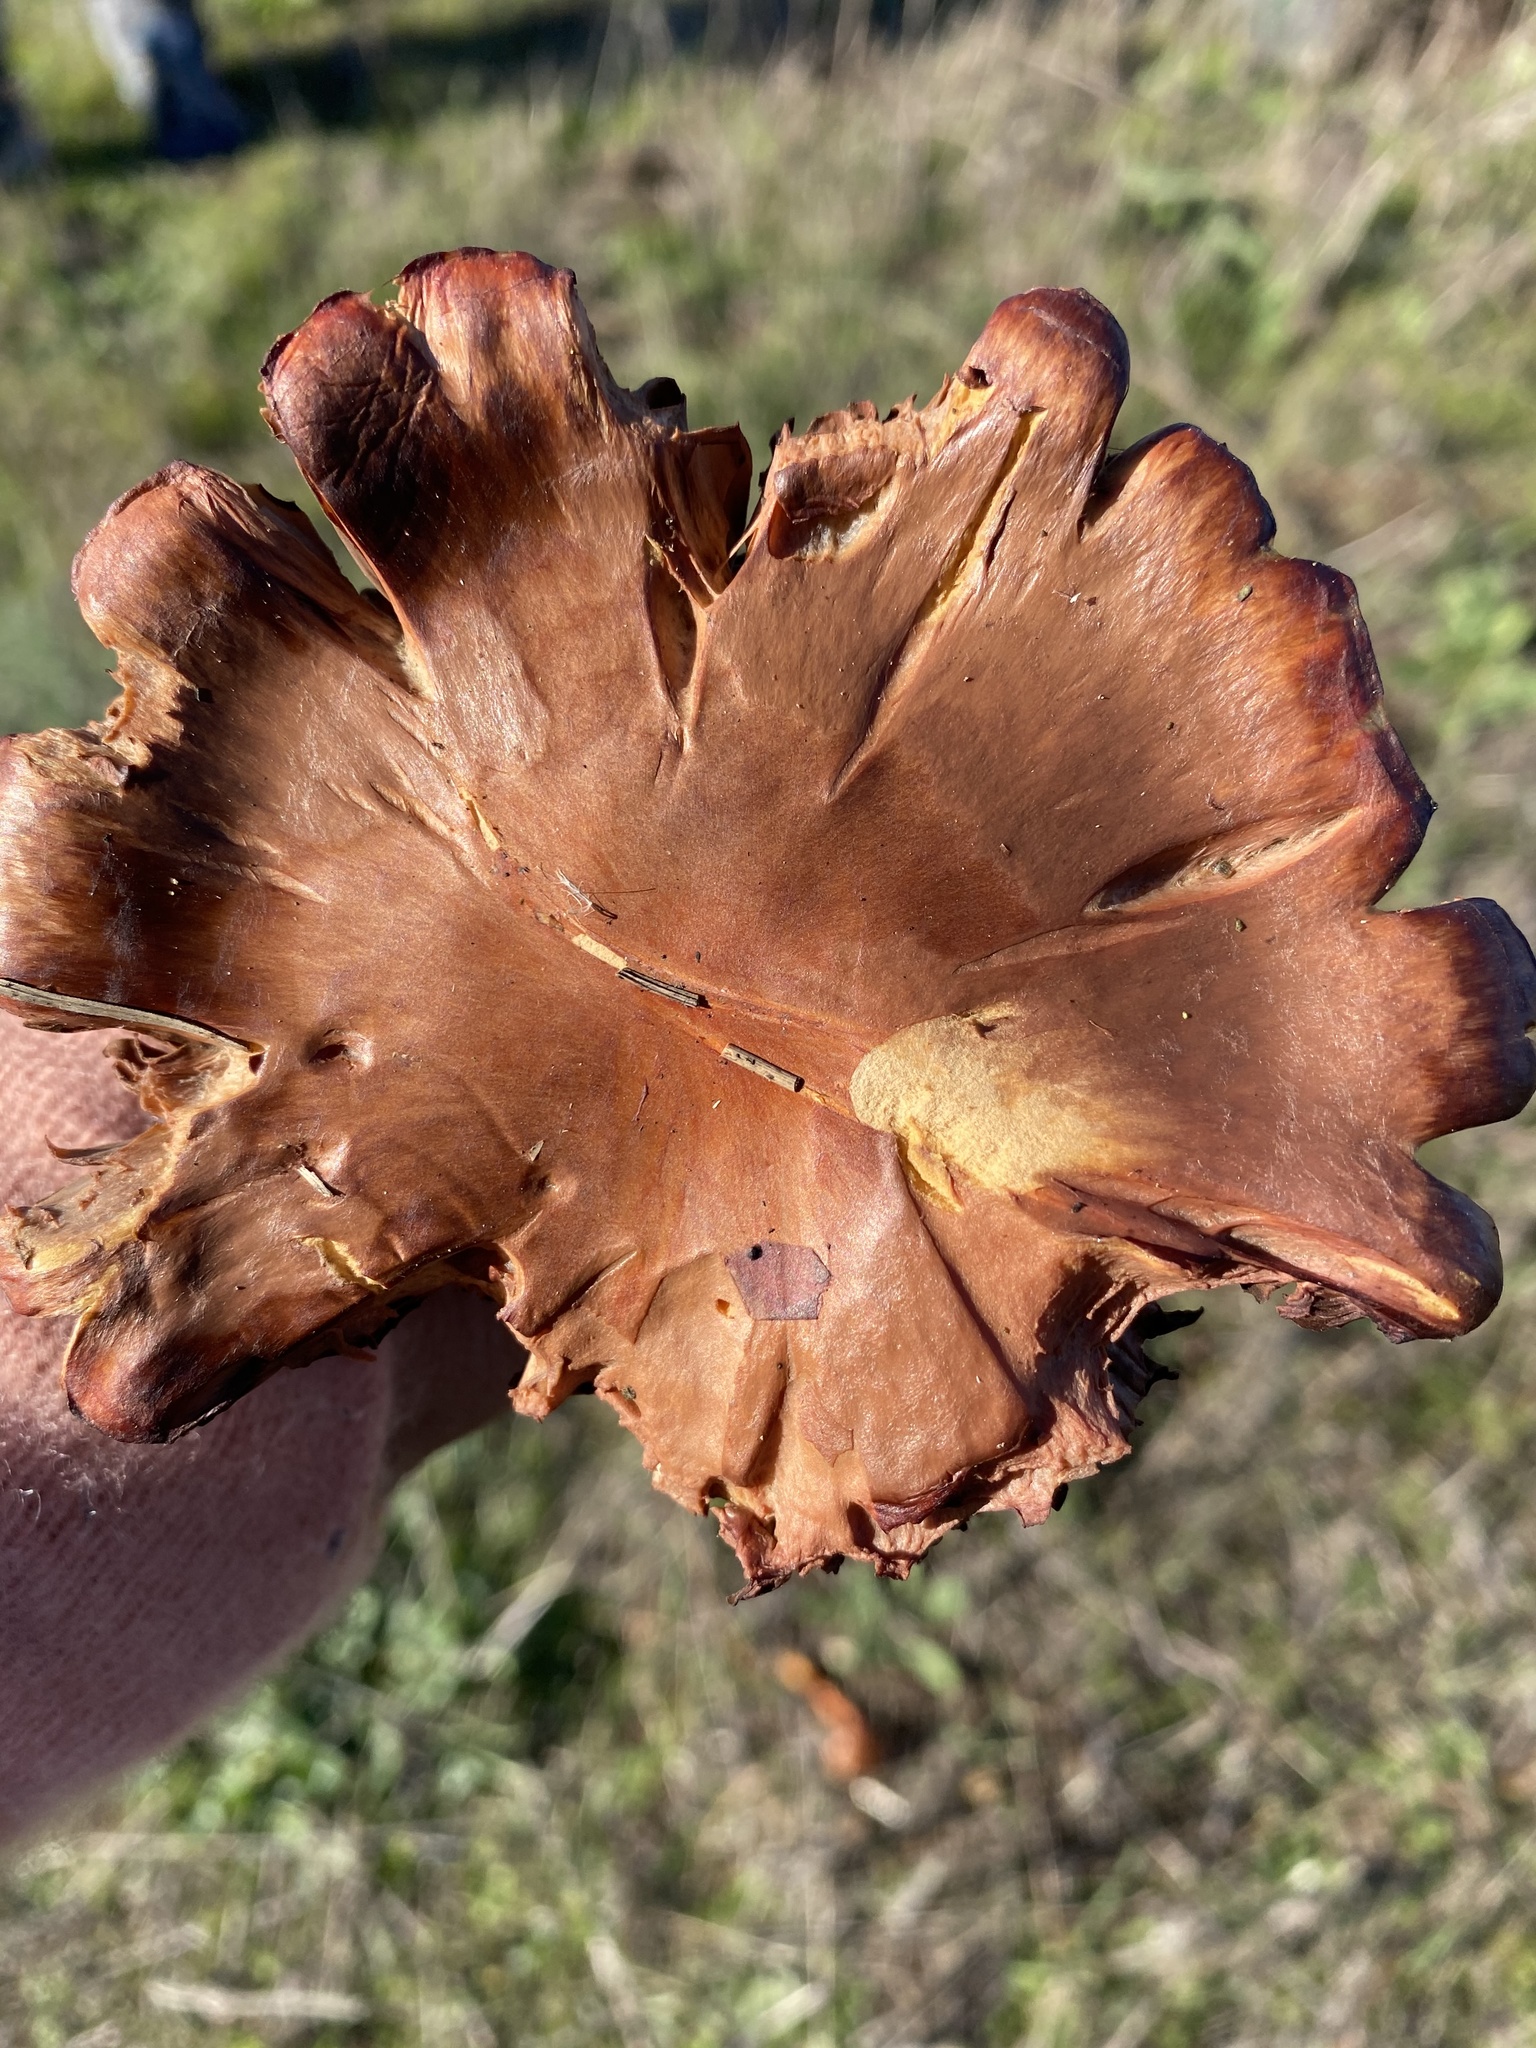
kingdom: Fungi
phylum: Basidiomycota
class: Agaricomycetes
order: Boletales
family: Gomphidiaceae
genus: Chroogomphus
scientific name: Chroogomphus vinicolor
